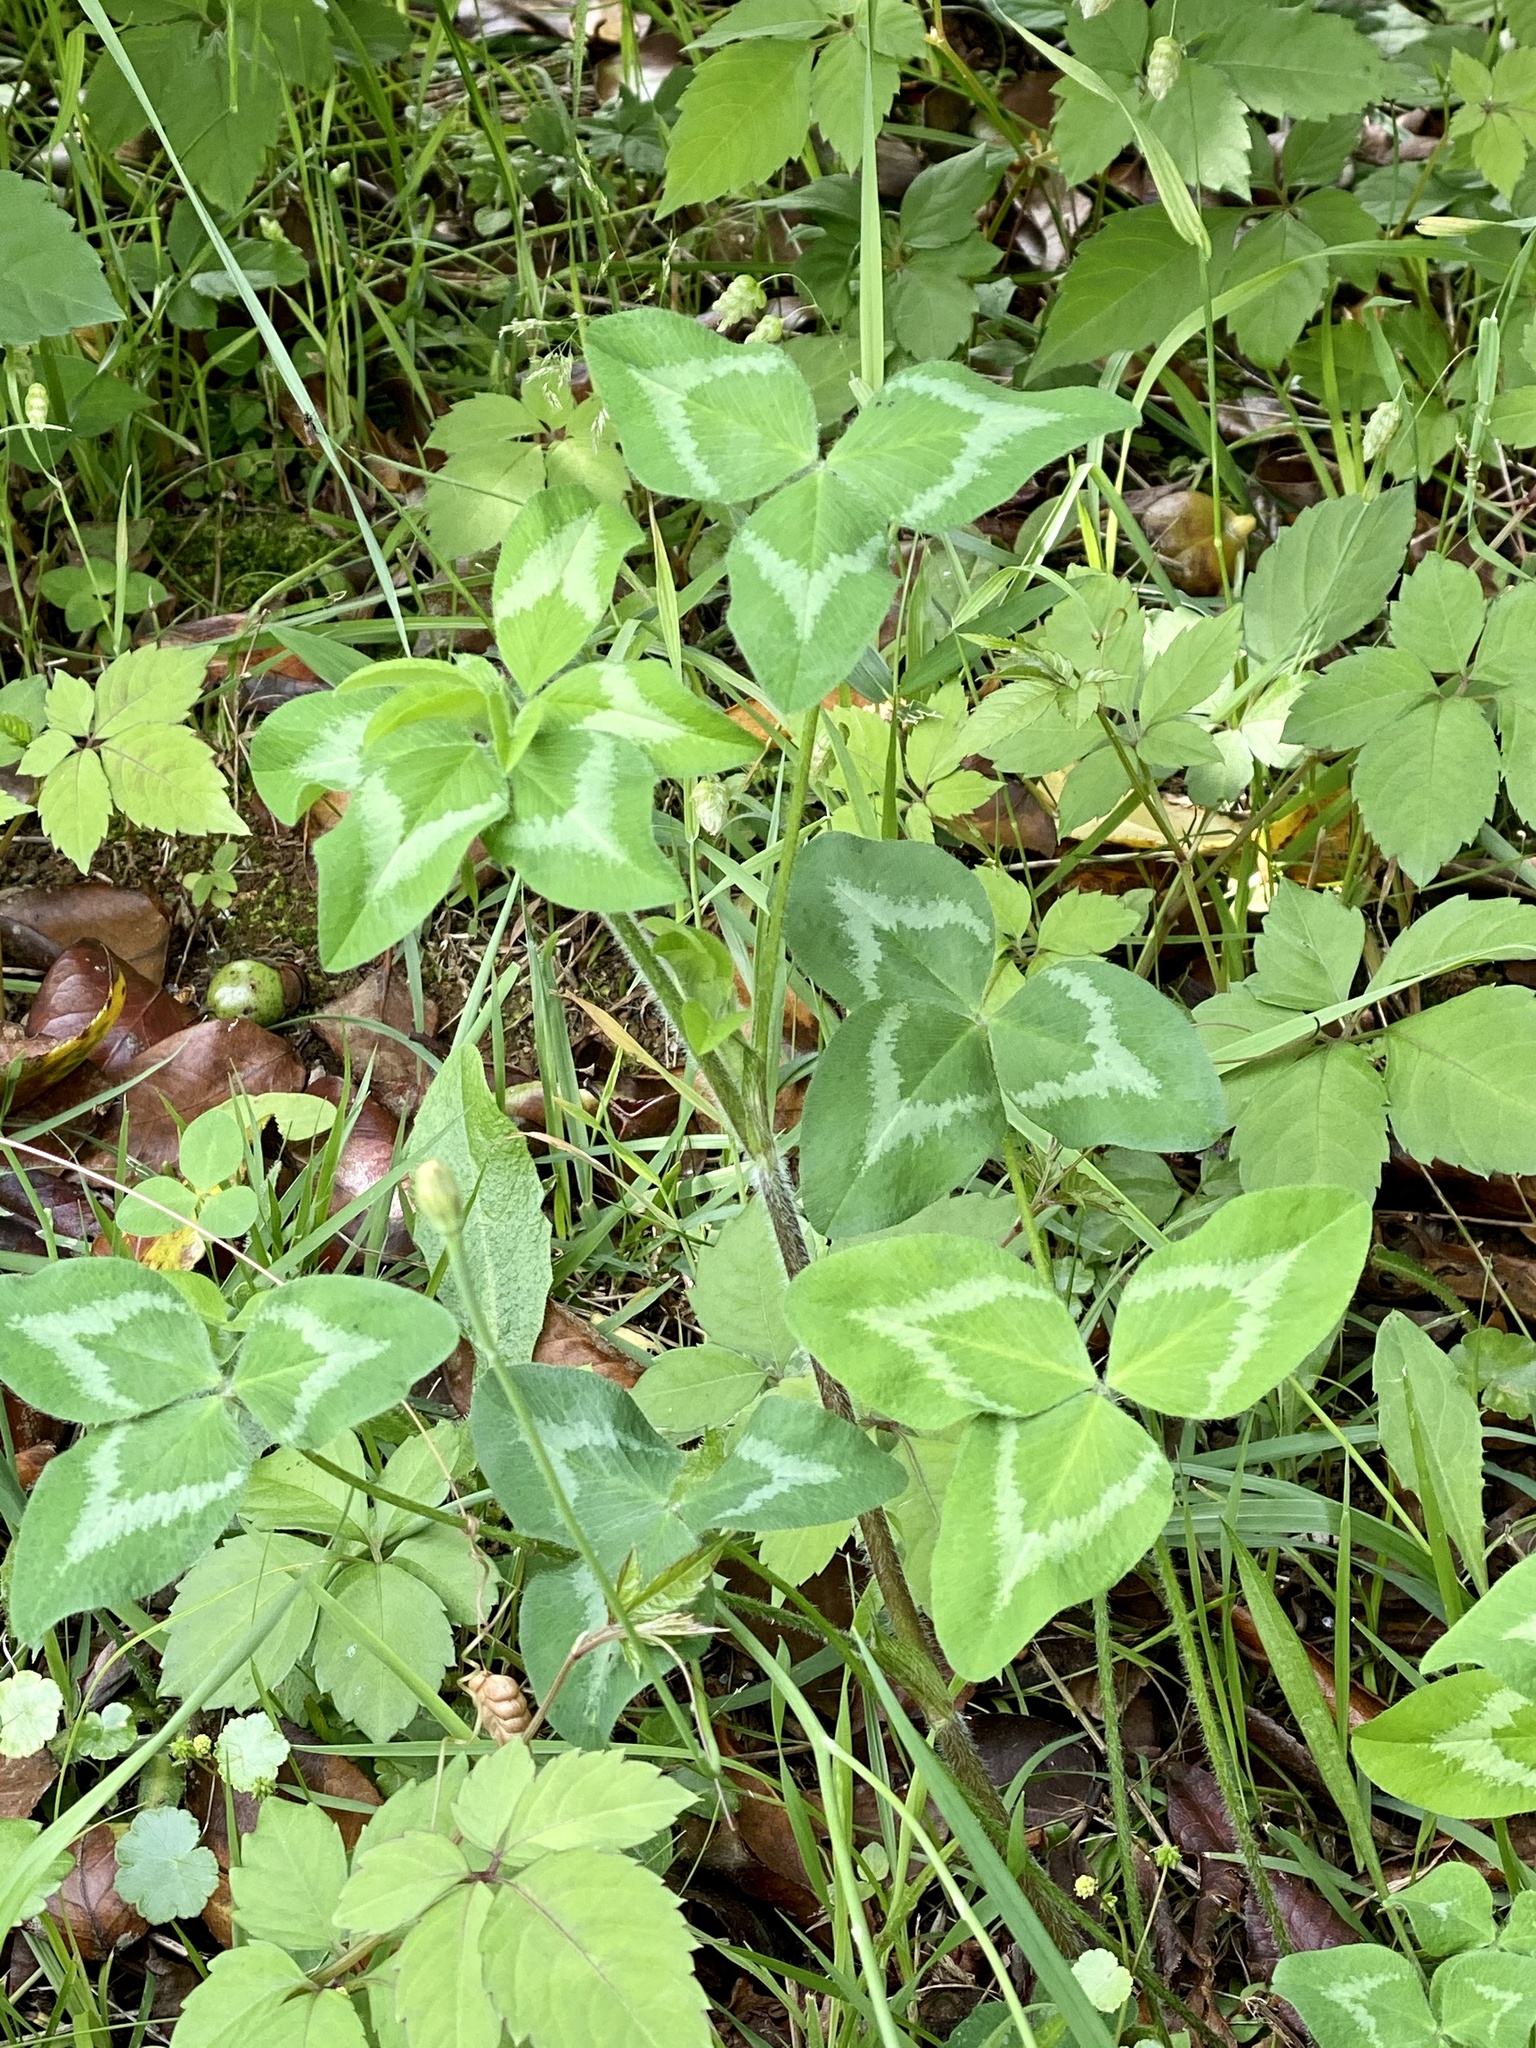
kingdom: Plantae
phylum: Tracheophyta
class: Magnoliopsida
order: Fabales
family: Fabaceae
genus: Trifolium
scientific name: Trifolium pratense
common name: Red clover
